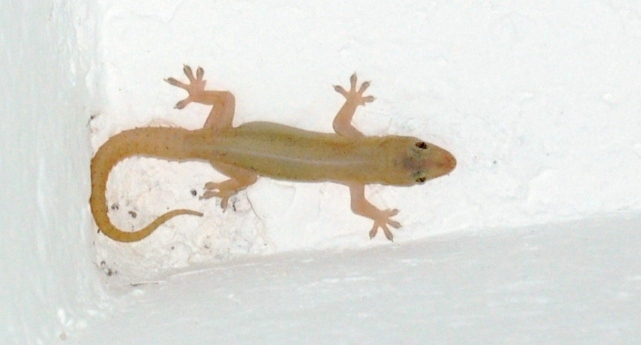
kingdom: Animalia
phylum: Chordata
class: Squamata
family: Gekkonidae
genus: Hemidactylus
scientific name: Hemidactylus frenatus
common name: Common house gecko
